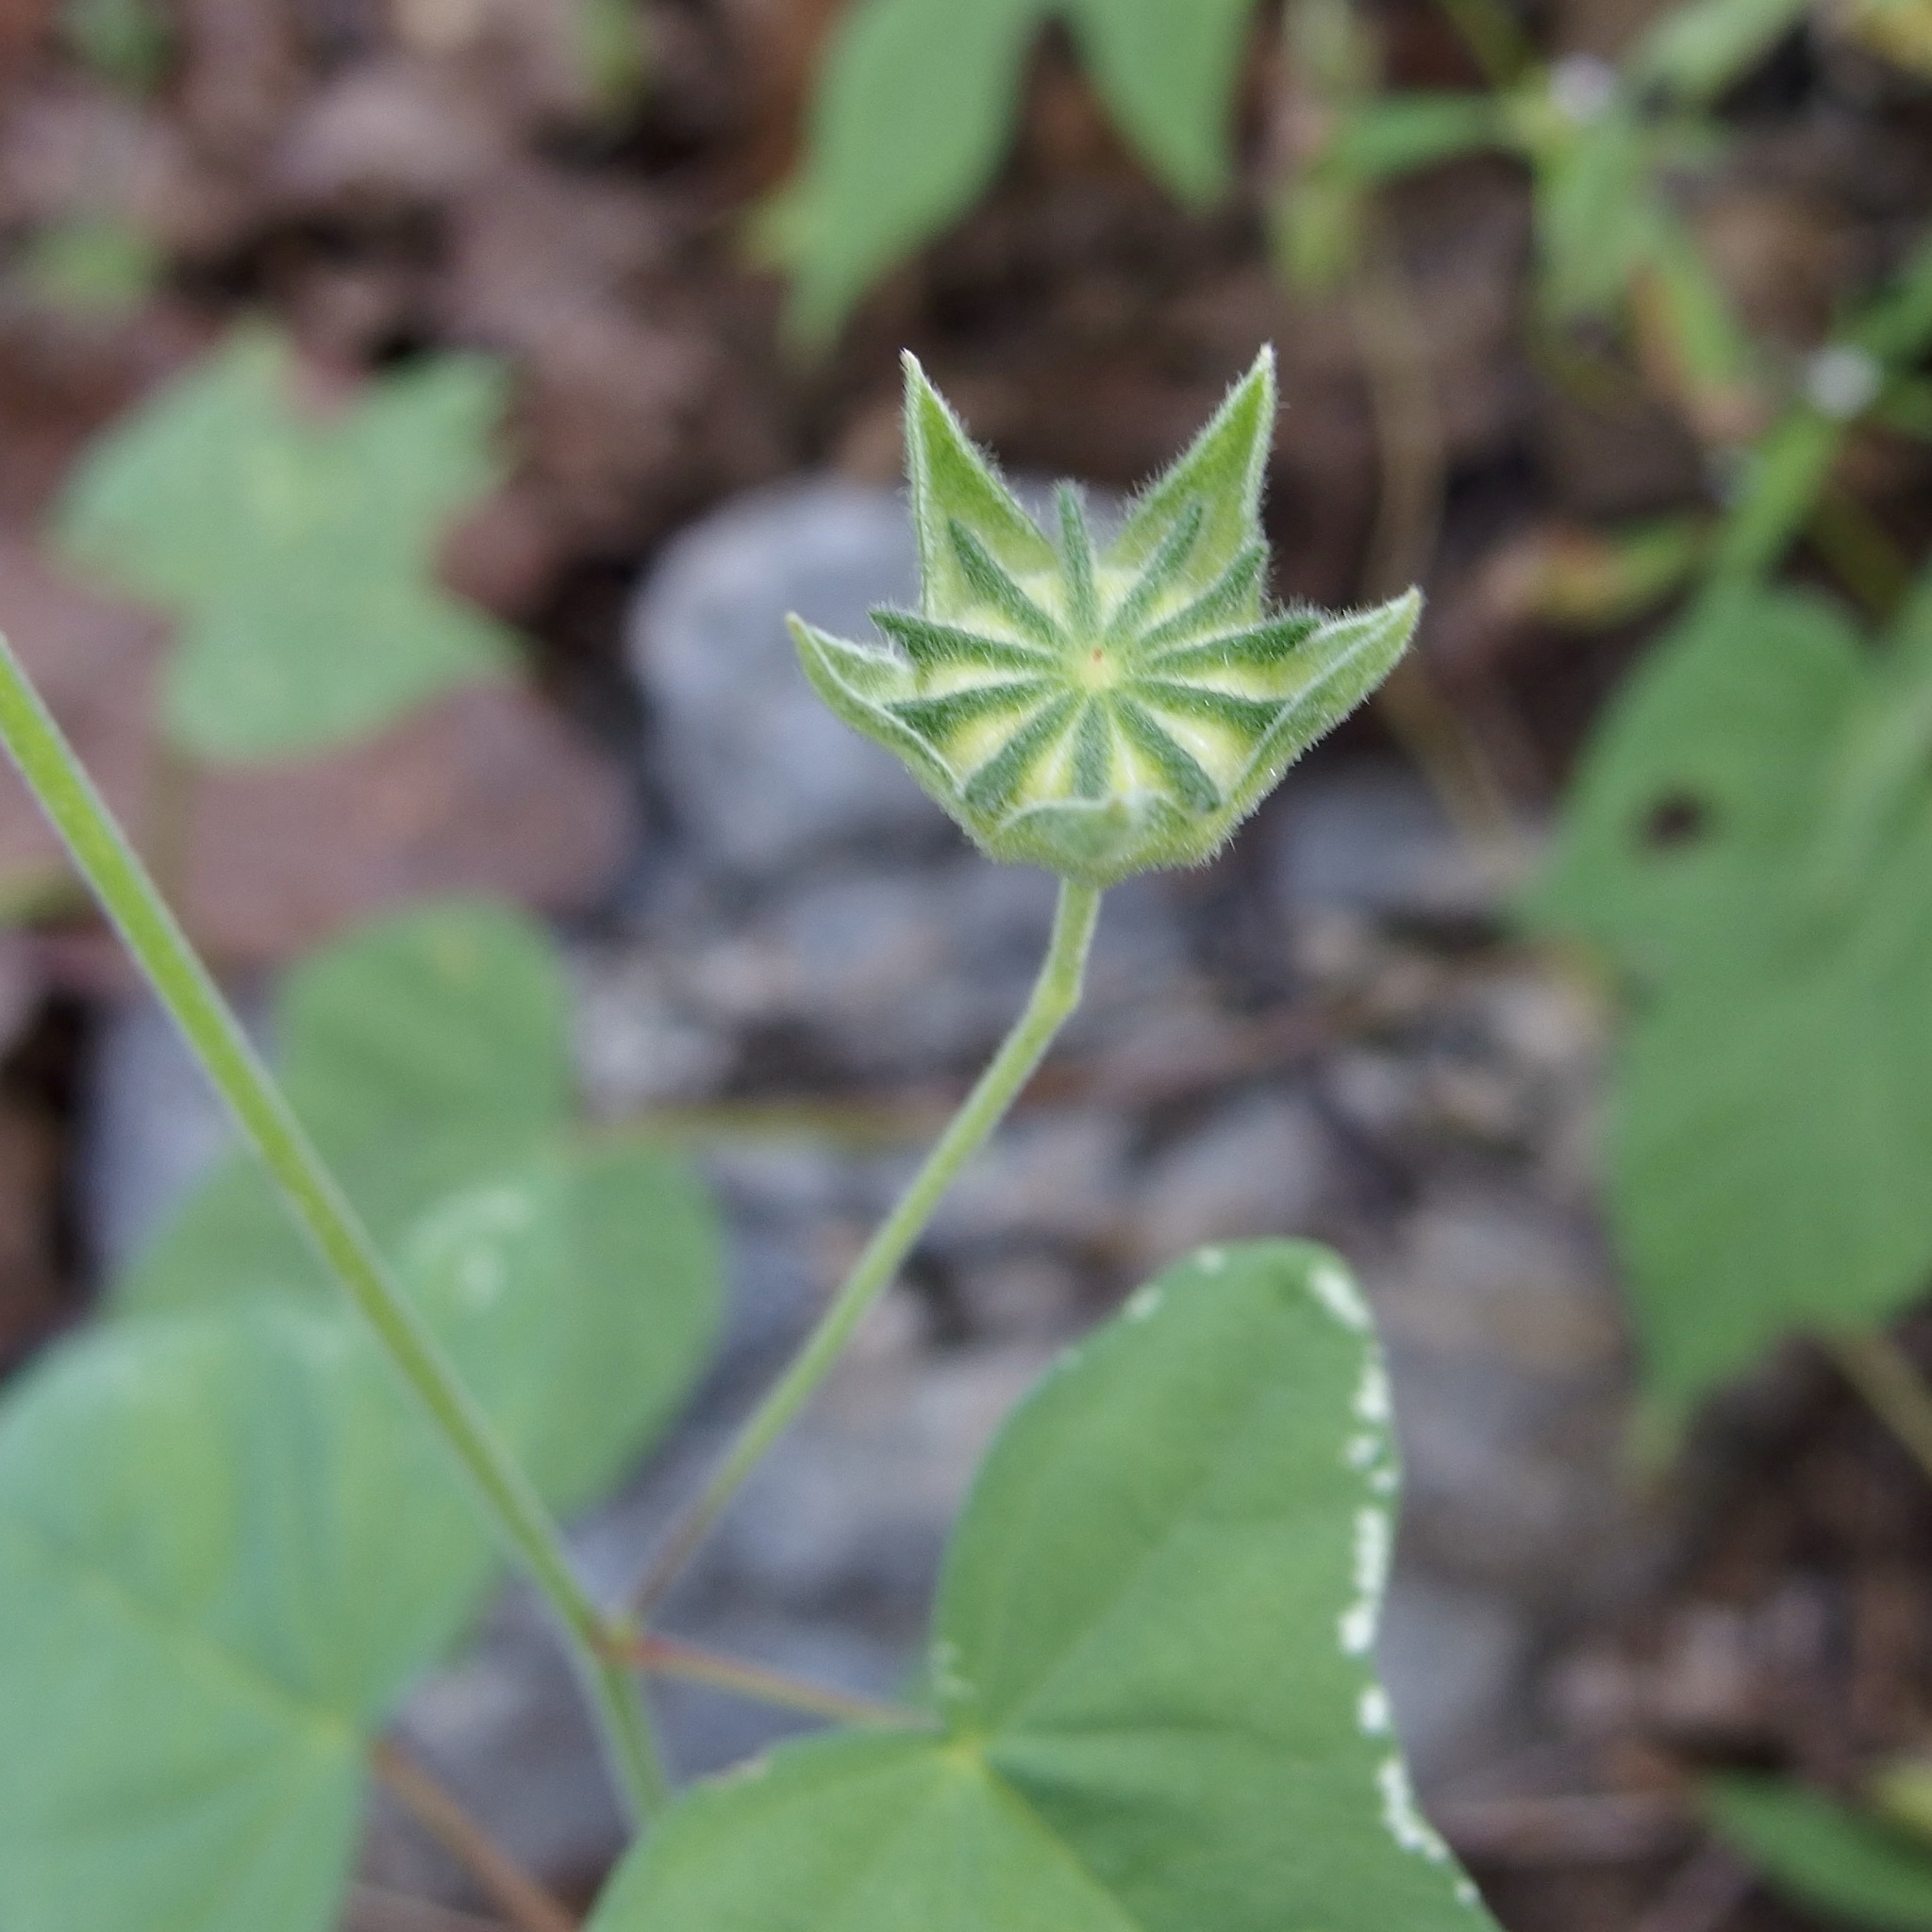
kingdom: Plantae
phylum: Tracheophyta
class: Magnoliopsida
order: Malvales
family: Malvaceae
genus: Anoda
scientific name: Anoda crenatiflora
